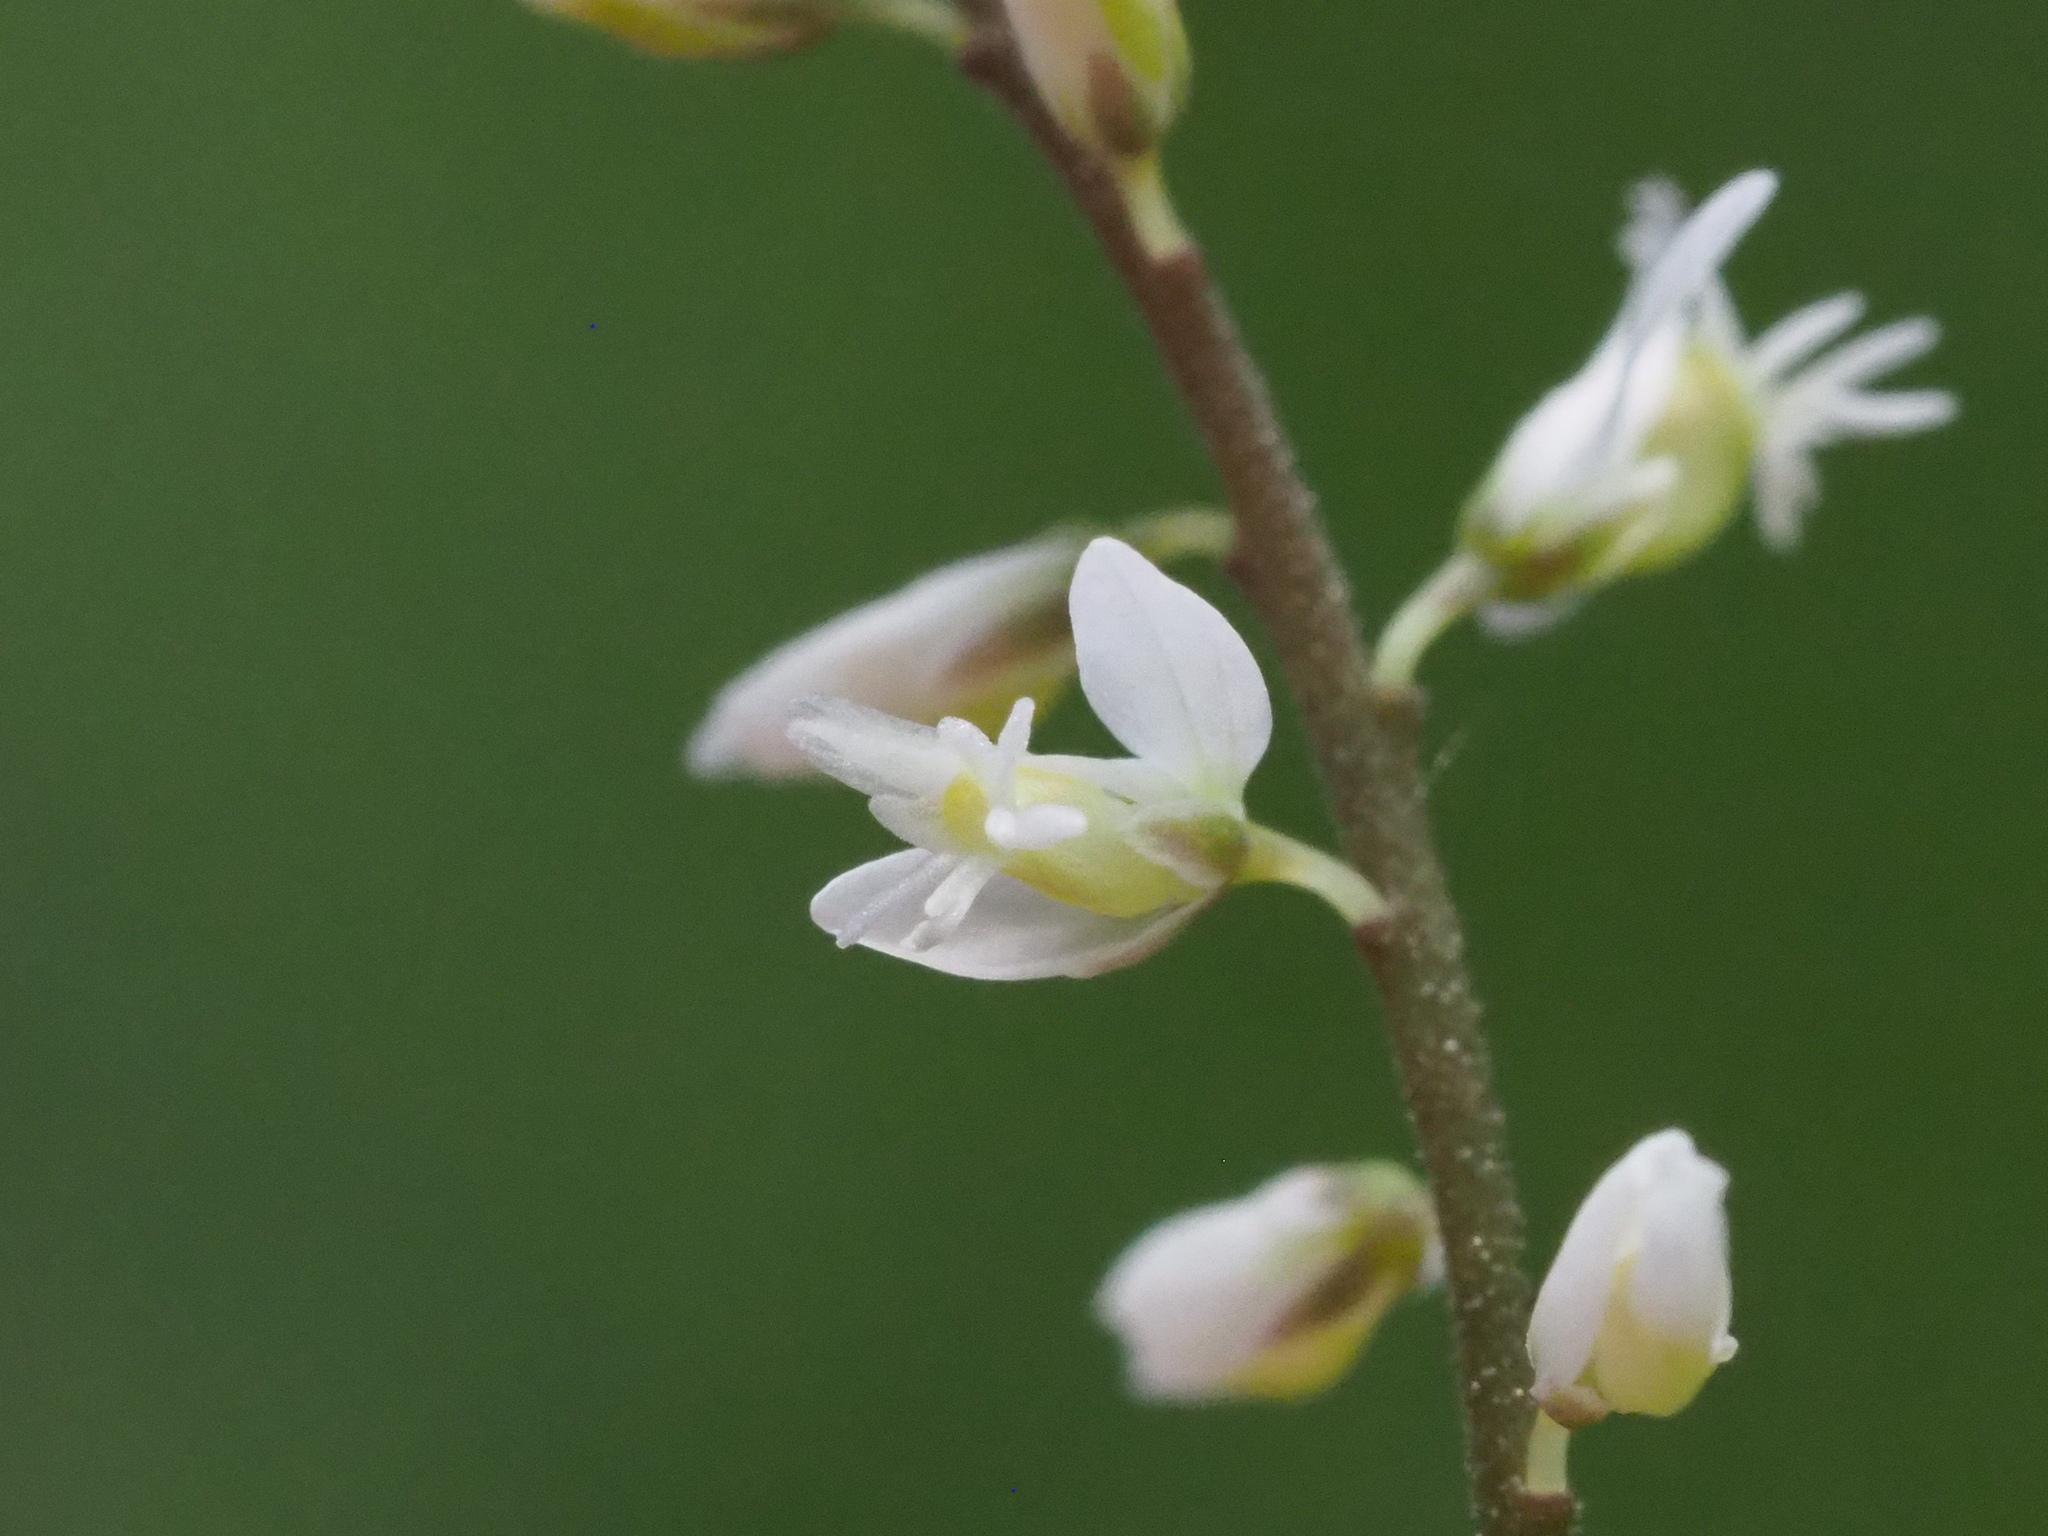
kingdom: Plantae
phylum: Tracheophyta
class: Magnoliopsida
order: Fabales
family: Polygalaceae
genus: Polygala
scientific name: Polygala paniculata
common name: Orosne
